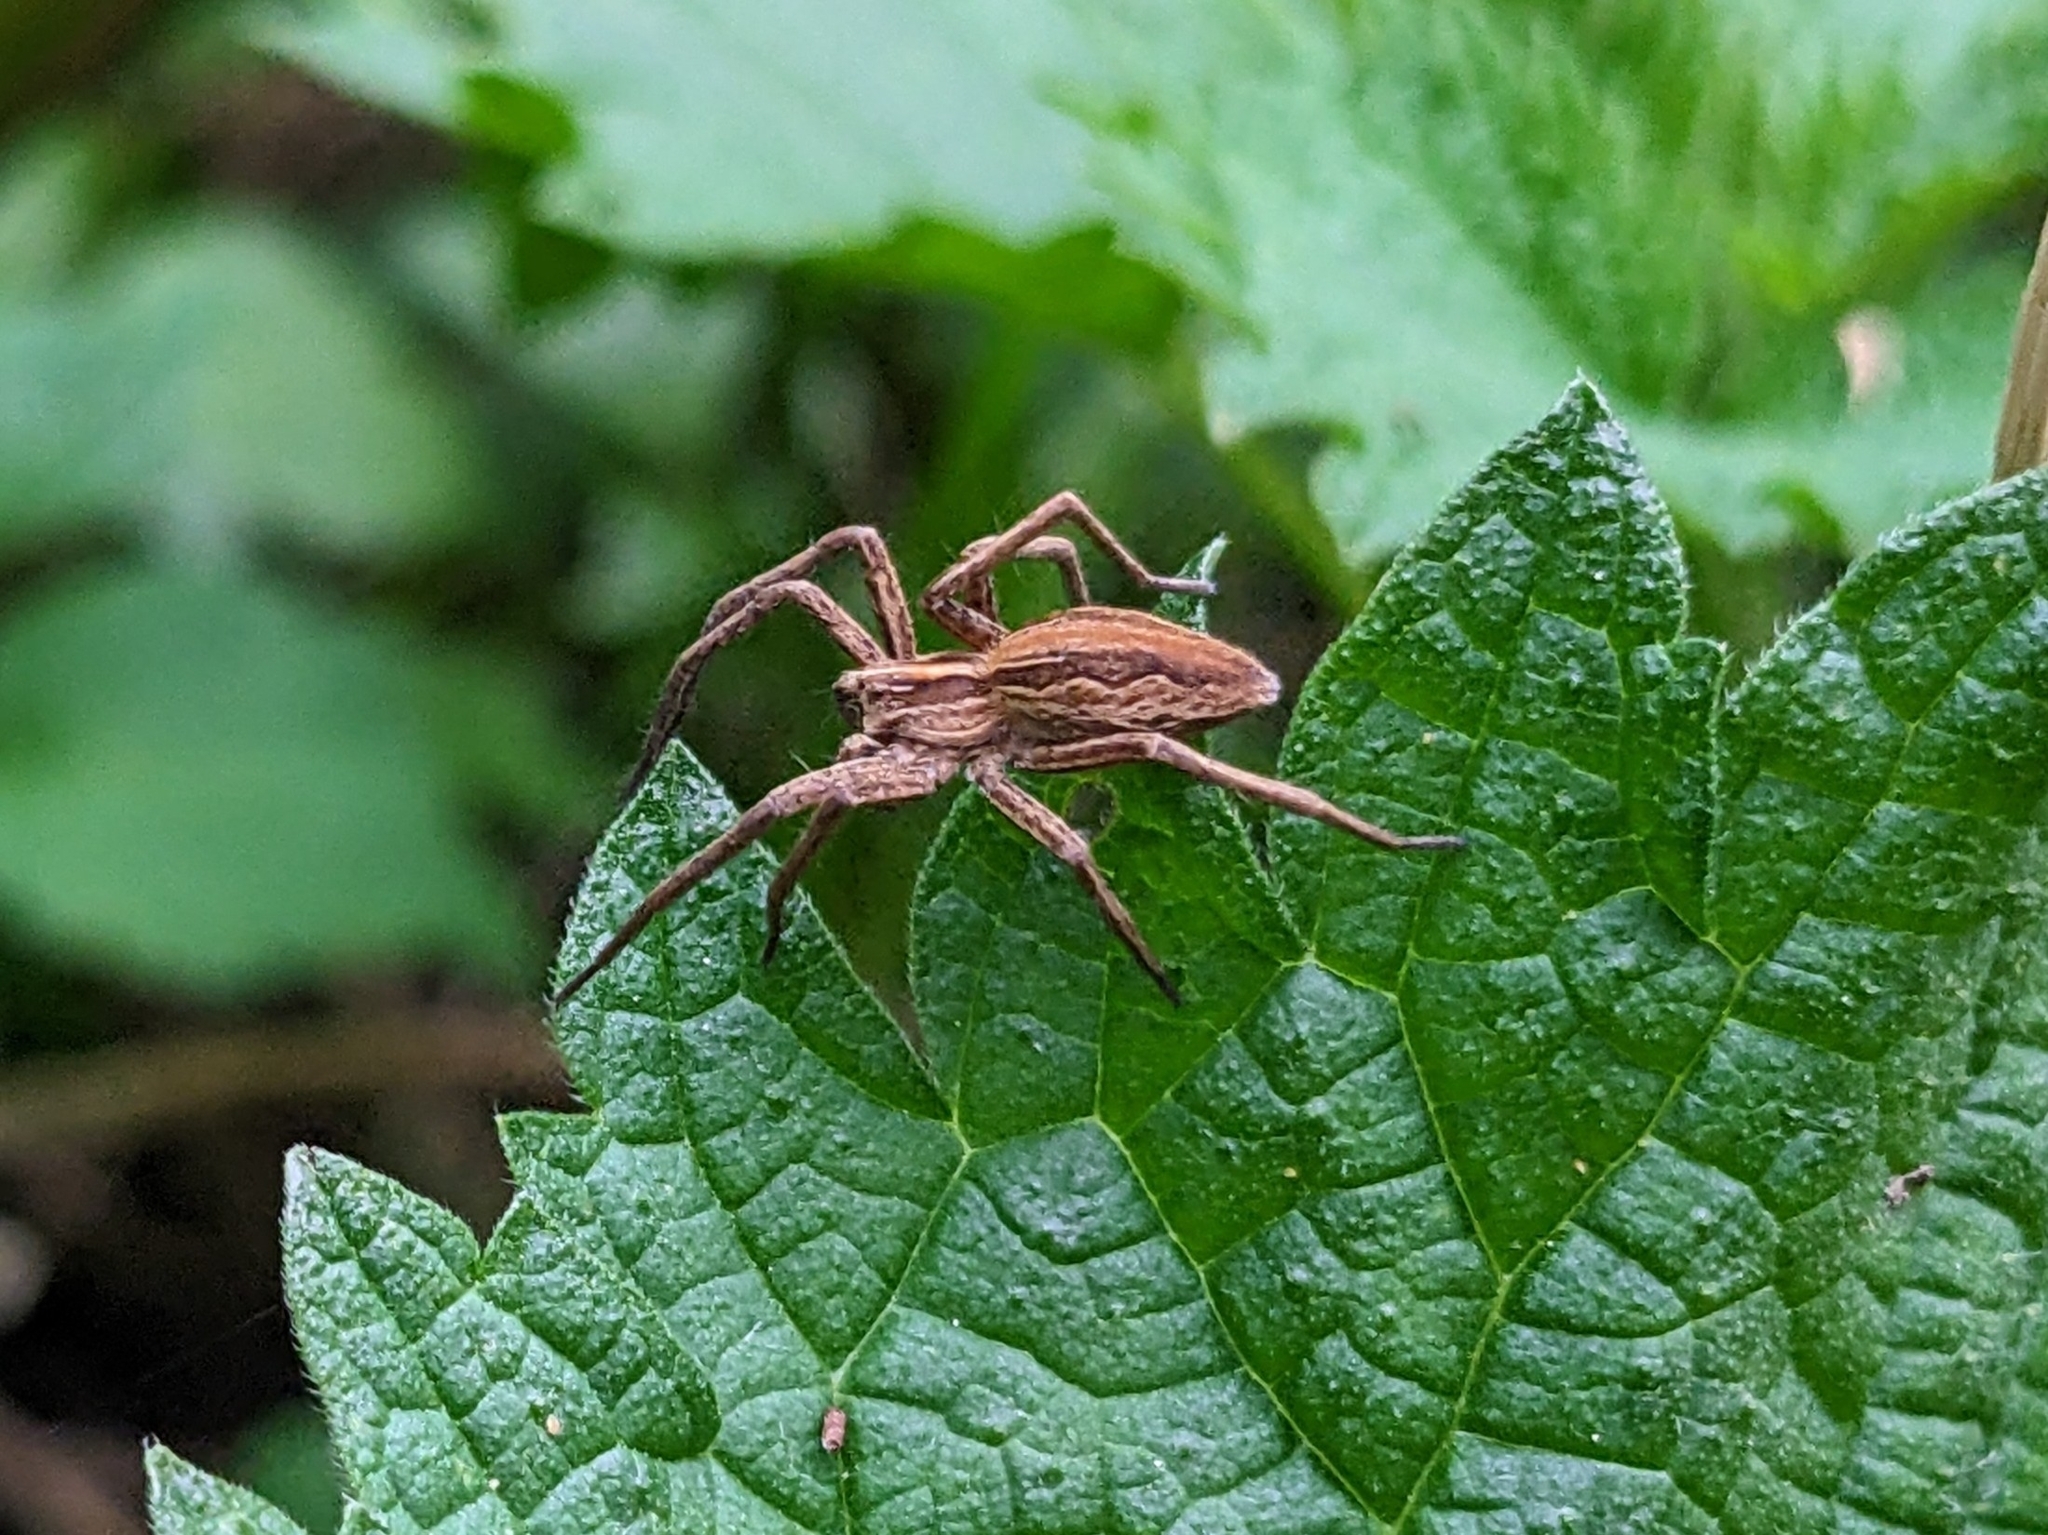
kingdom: Animalia
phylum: Arthropoda
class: Arachnida
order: Araneae
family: Pisauridae
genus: Pisaura
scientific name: Pisaura mirabilis
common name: Tent spider
